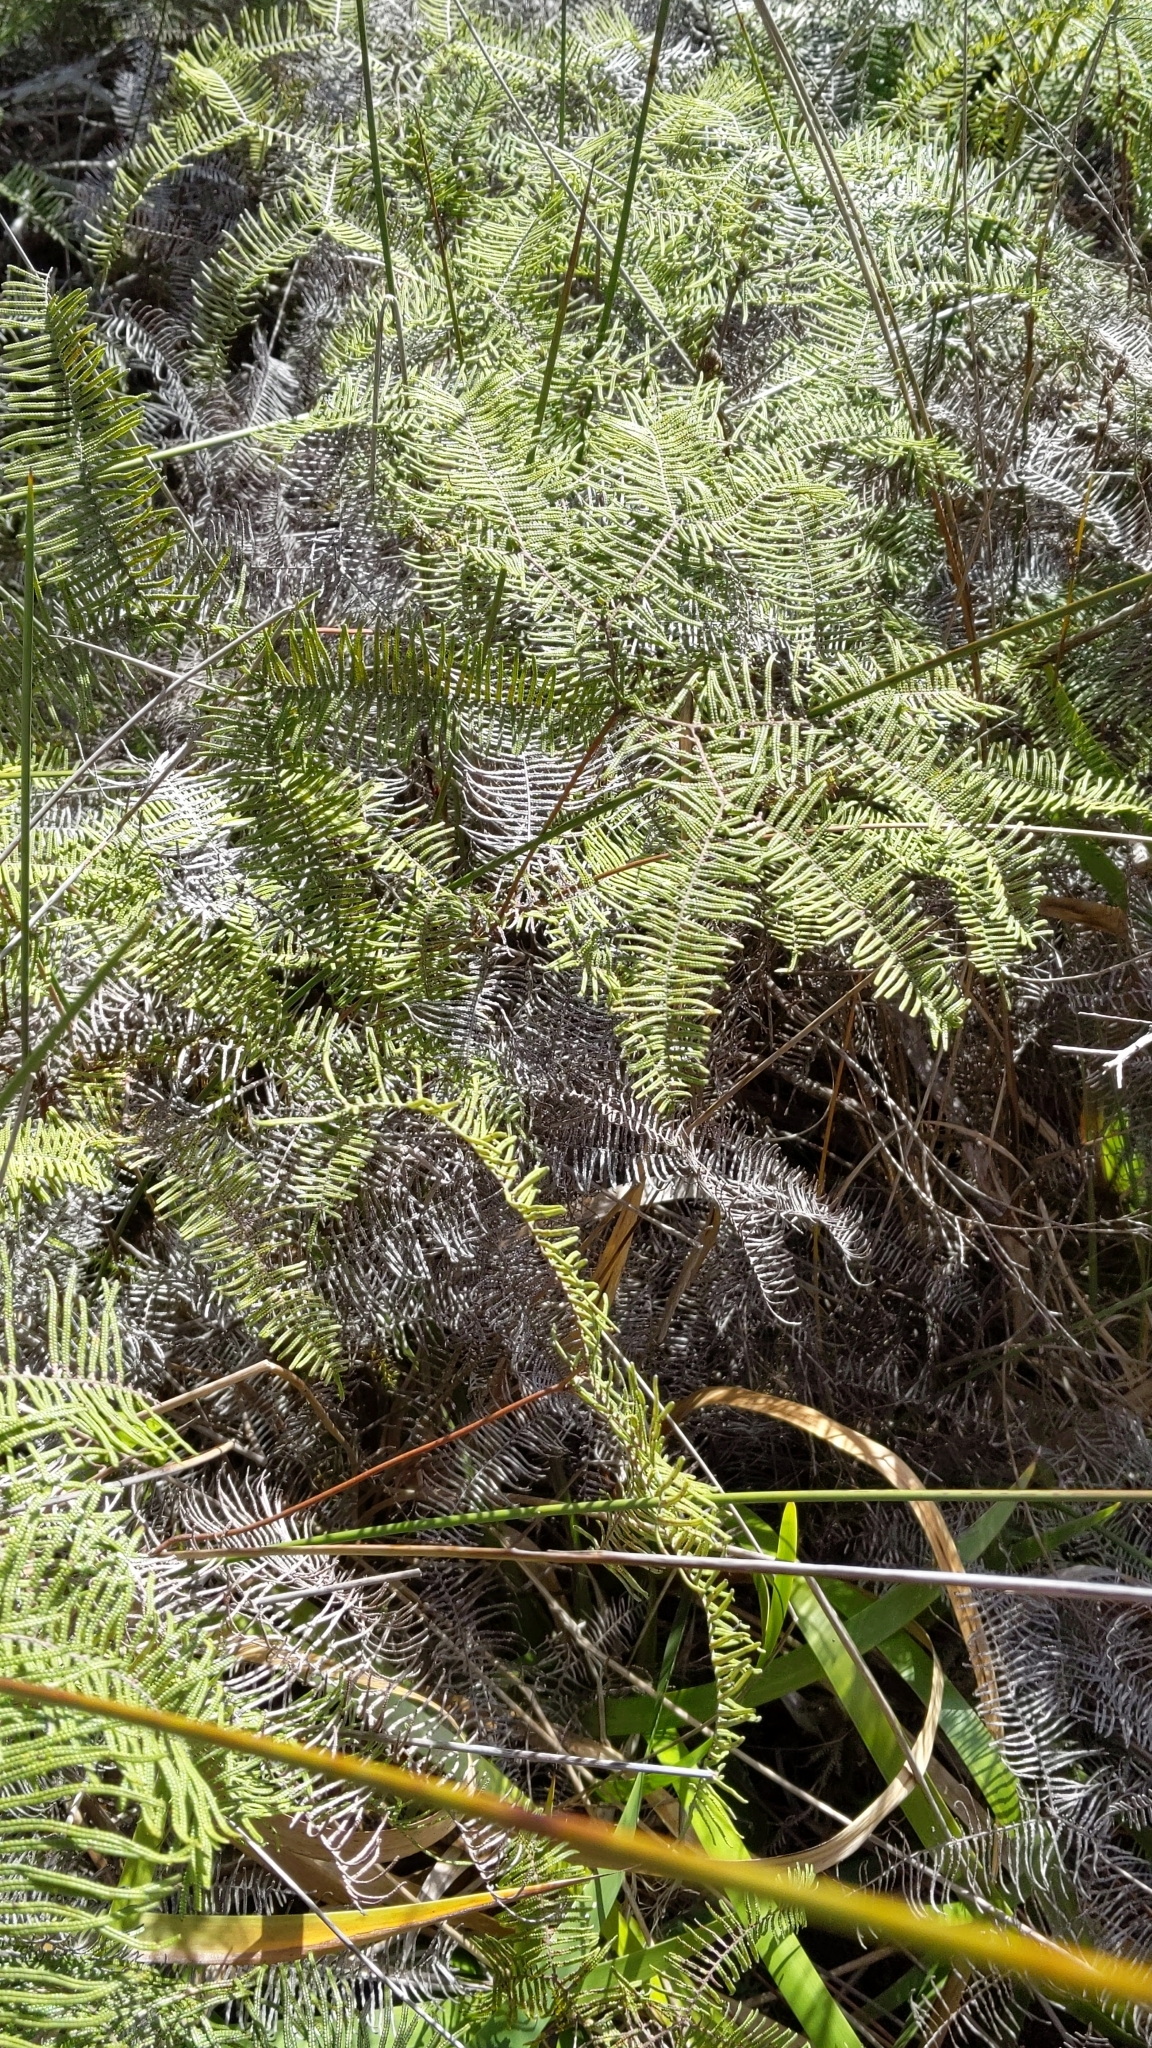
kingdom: Plantae
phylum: Tracheophyta
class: Polypodiopsida
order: Gleicheniales
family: Gleicheniaceae
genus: Gleichenia
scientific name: Gleichenia dicarpa
